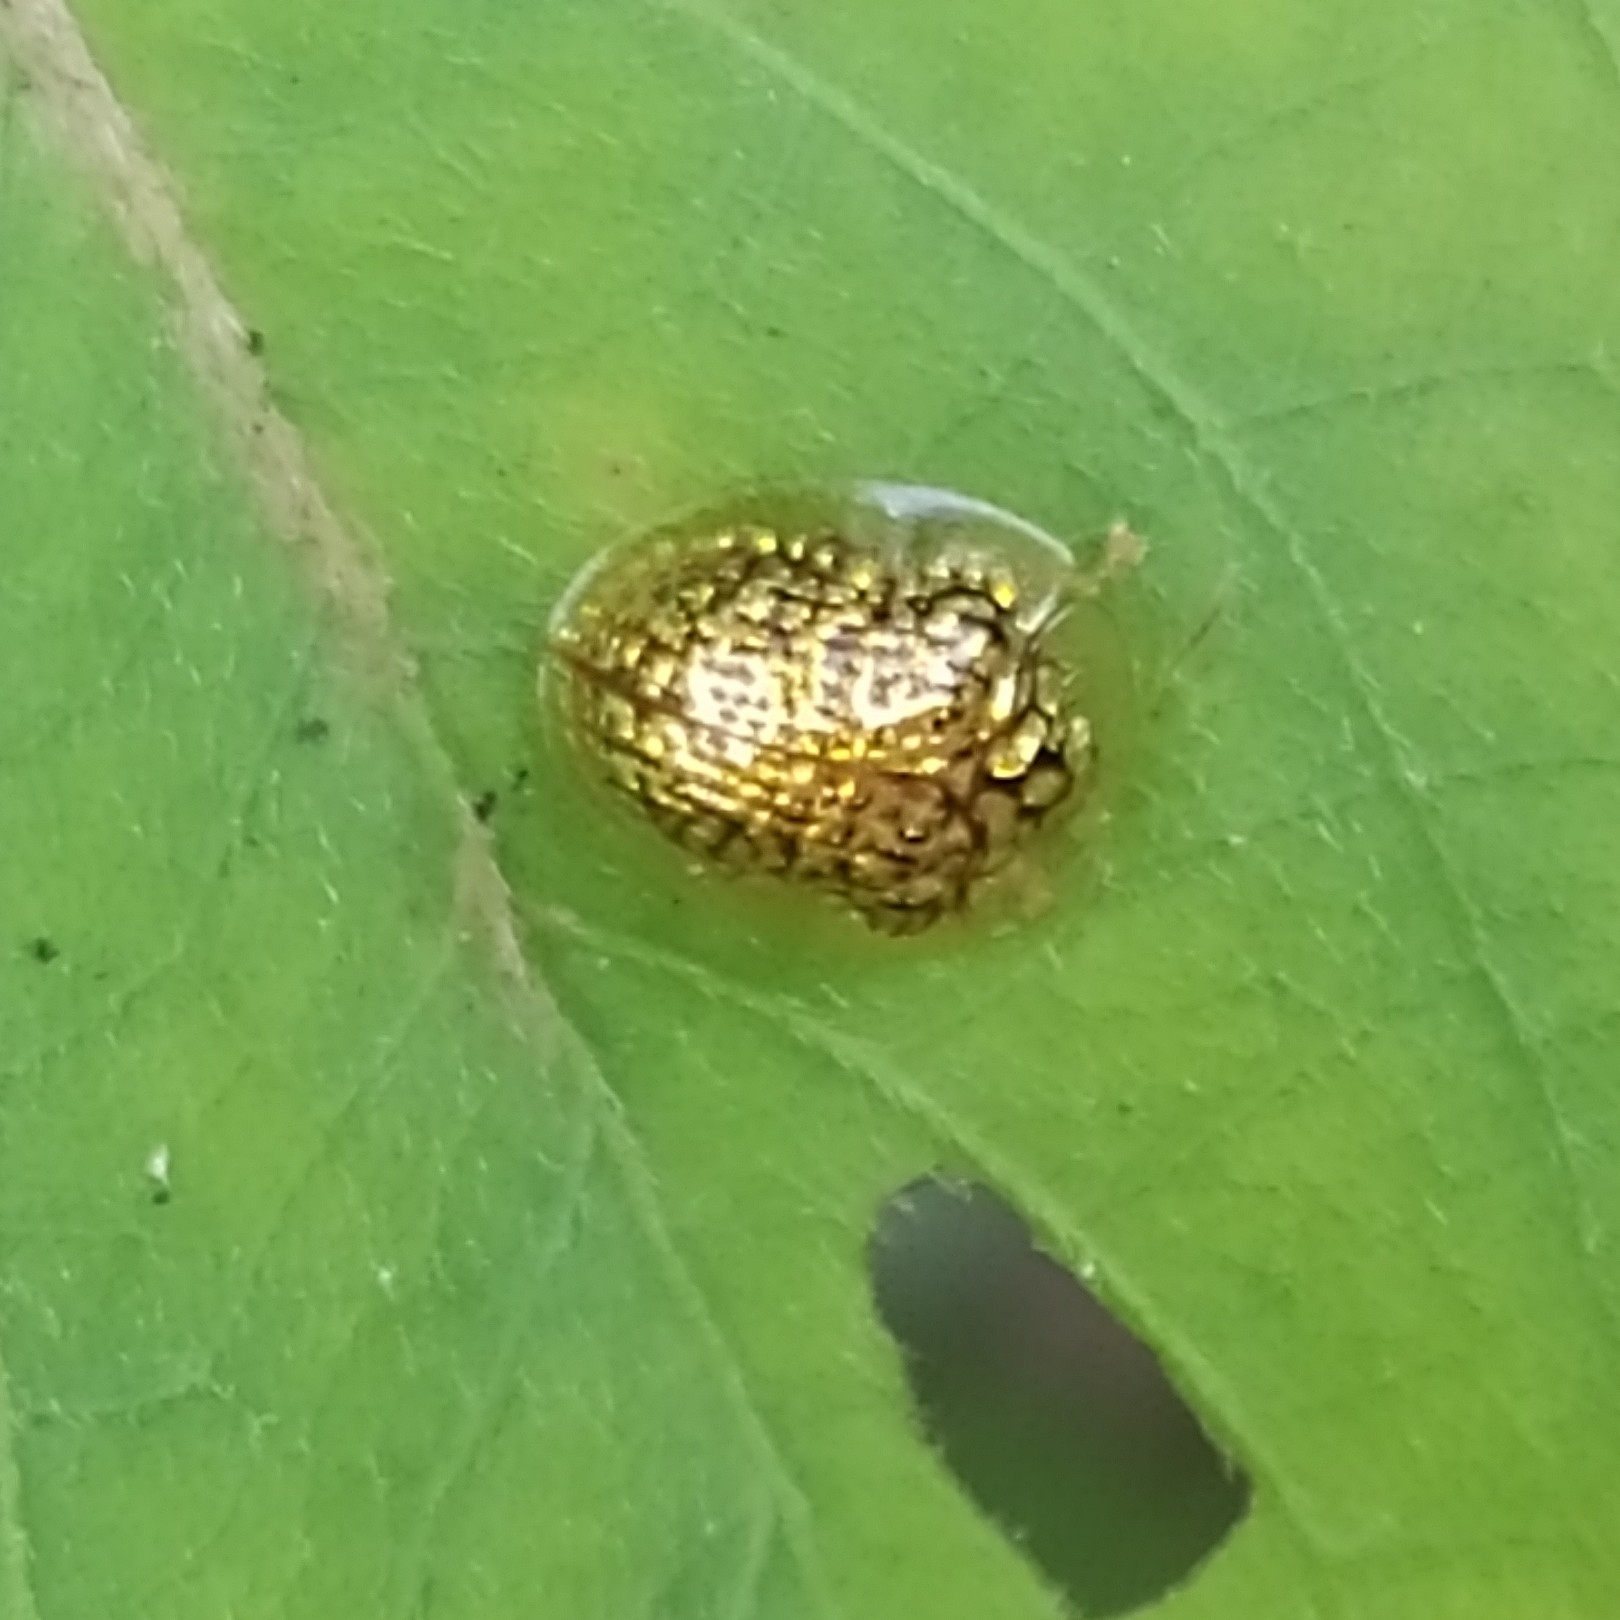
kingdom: Animalia
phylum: Arthropoda
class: Insecta
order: Coleoptera
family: Chrysomelidae
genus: Microctenochira
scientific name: Microctenochira reticularis
